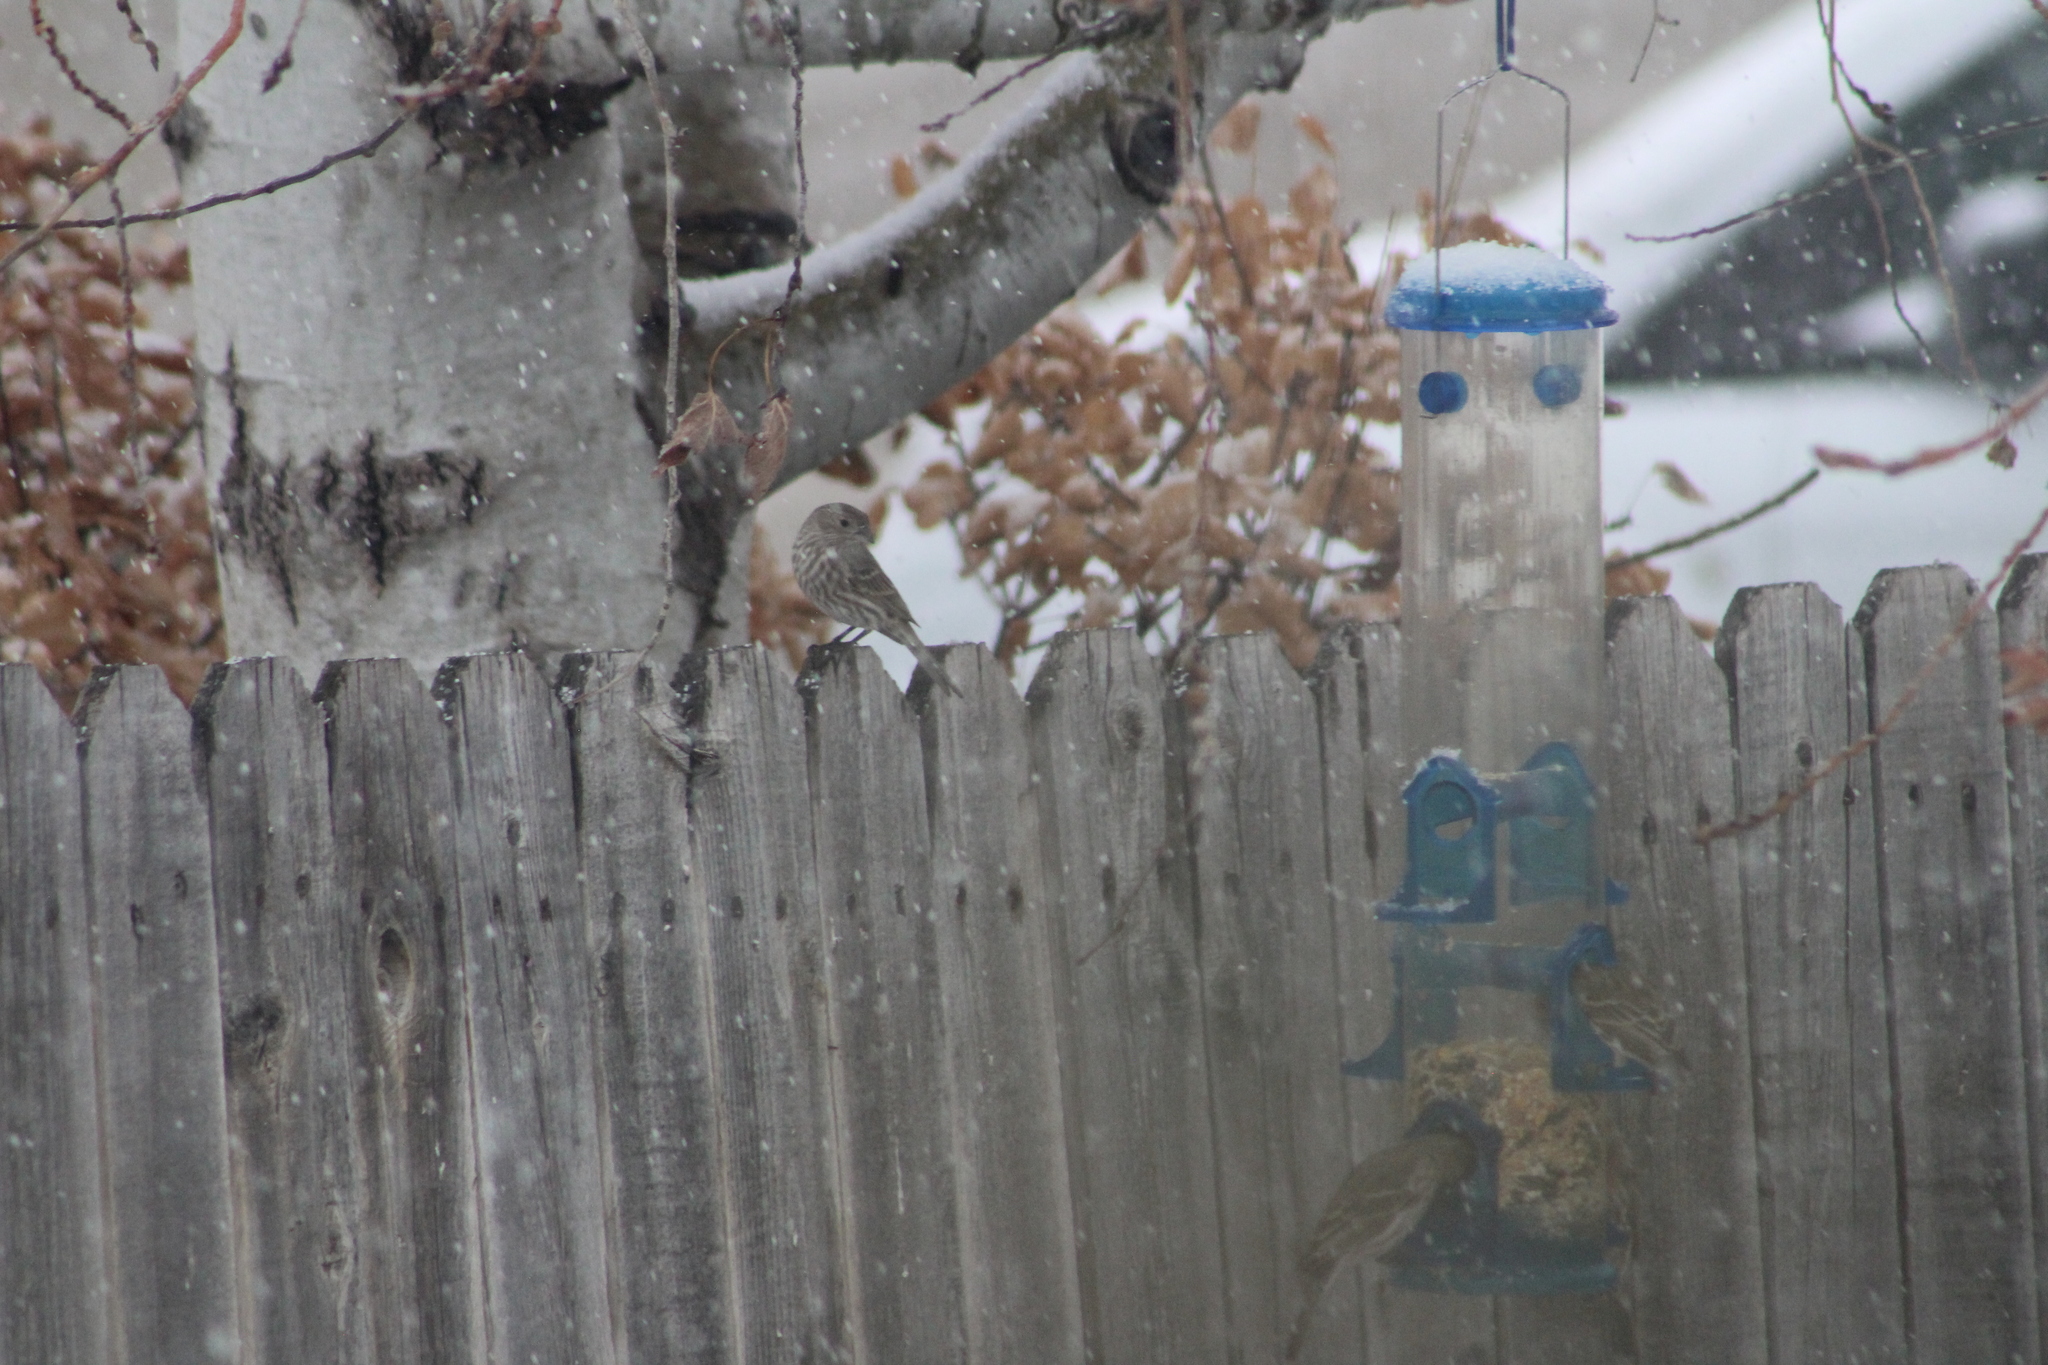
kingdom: Animalia
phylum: Chordata
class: Aves
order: Passeriformes
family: Fringillidae
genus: Haemorhous
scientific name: Haemorhous mexicanus
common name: House finch
